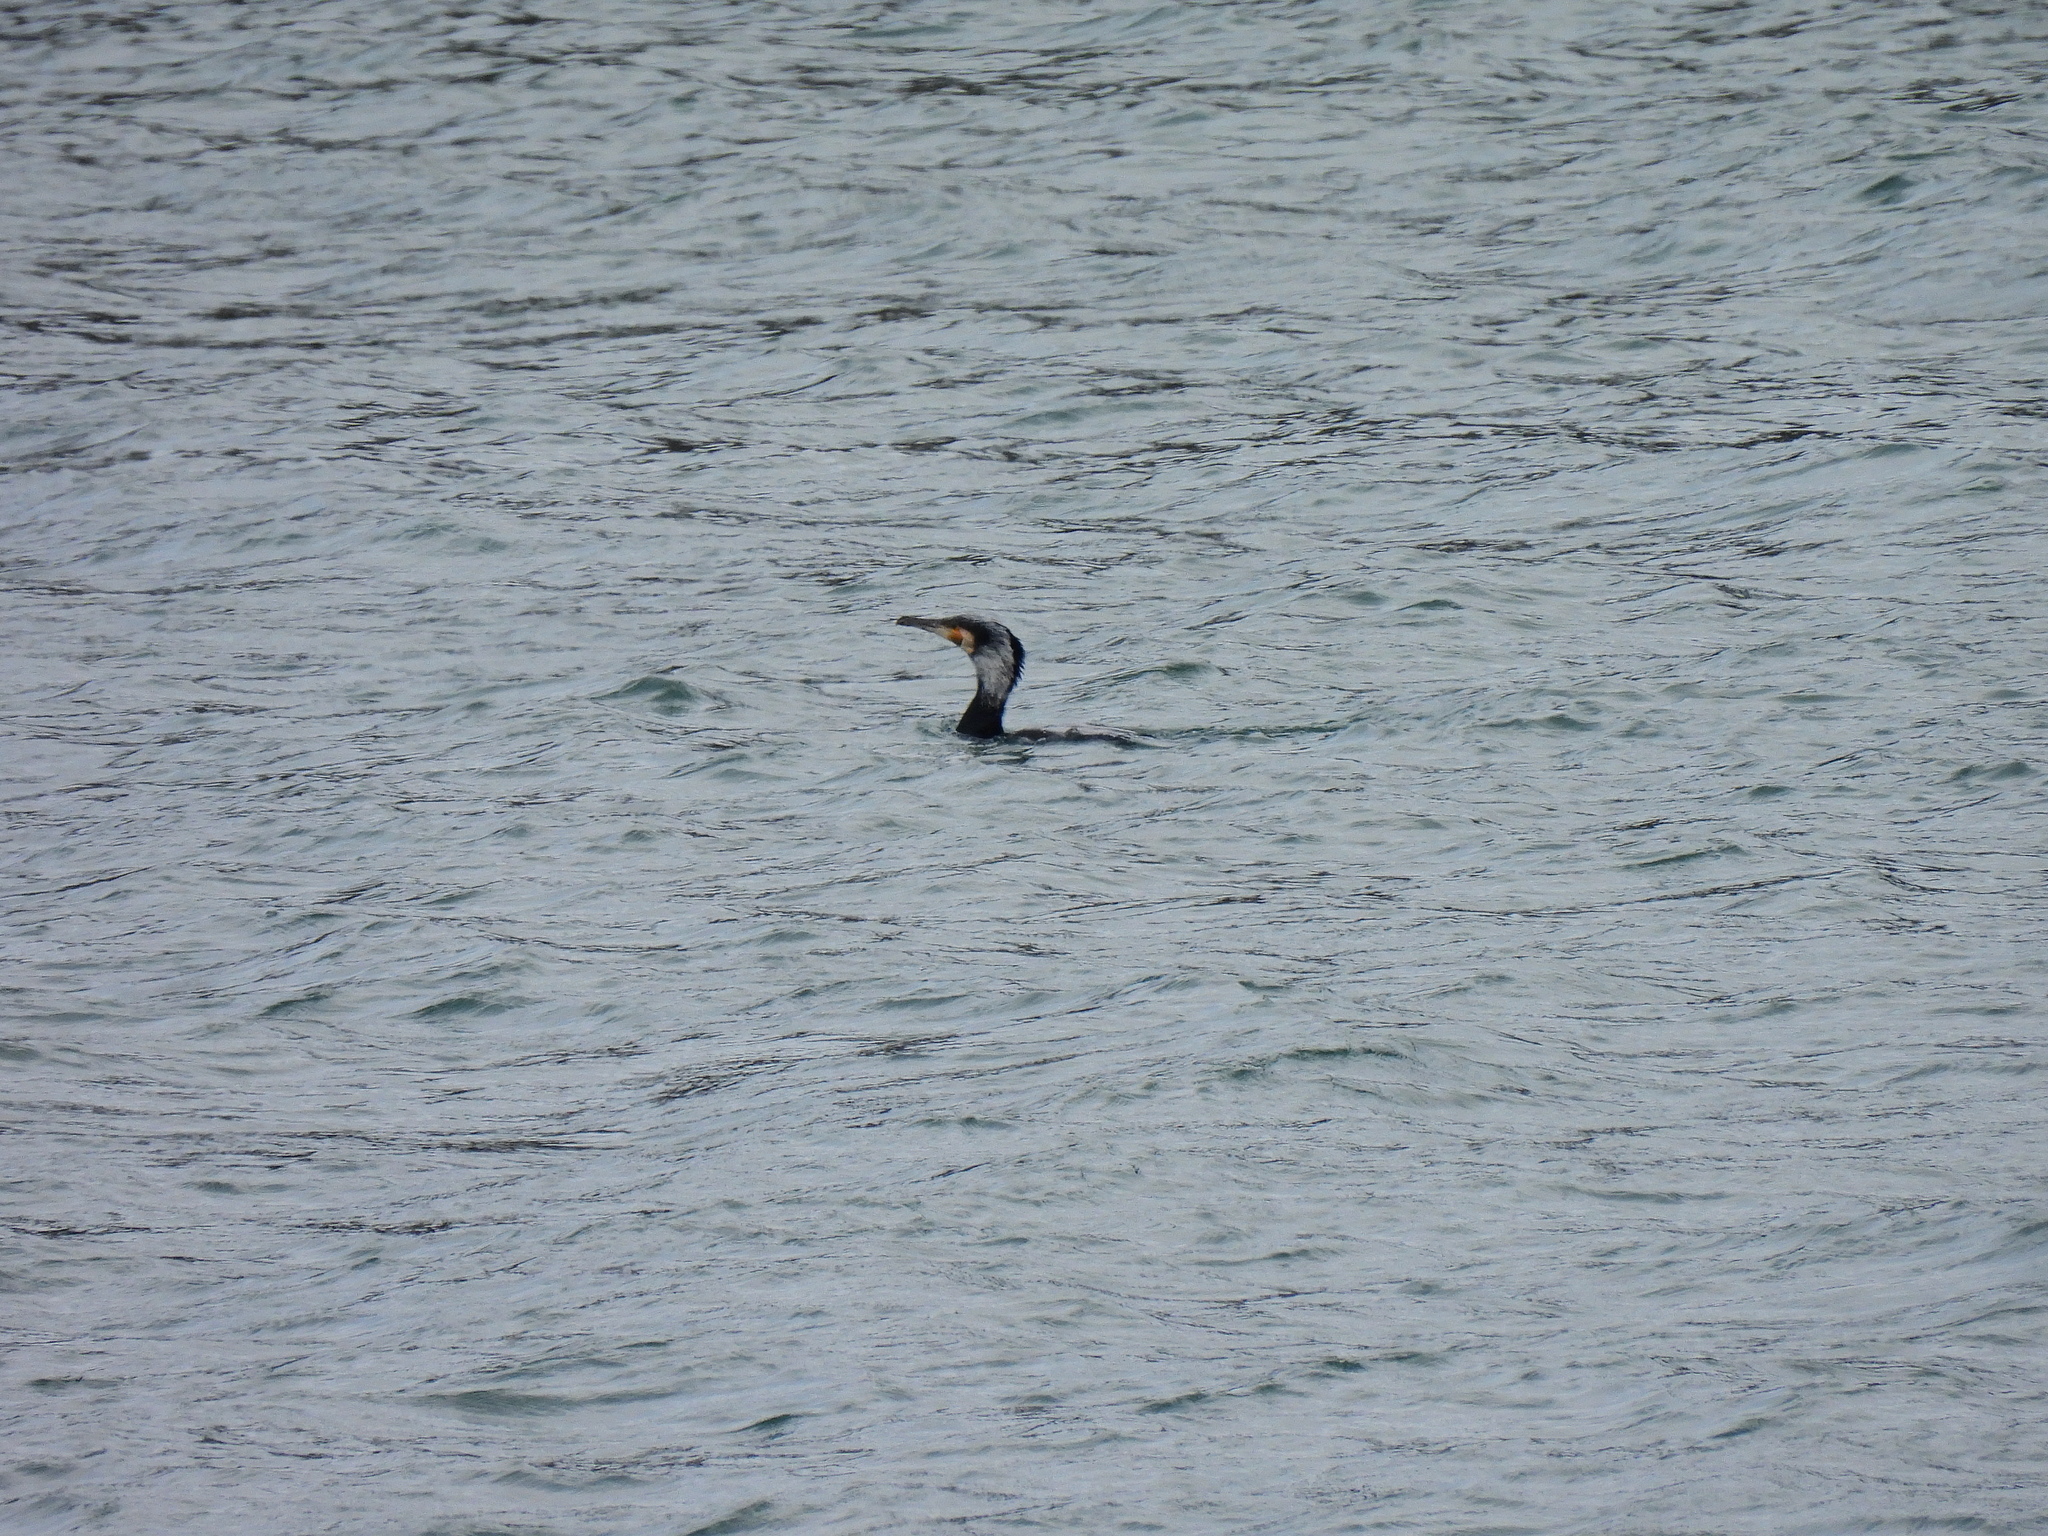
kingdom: Animalia
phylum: Chordata
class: Aves
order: Suliformes
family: Phalacrocoracidae
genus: Phalacrocorax
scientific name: Phalacrocorax carbo
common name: Great cormorant
